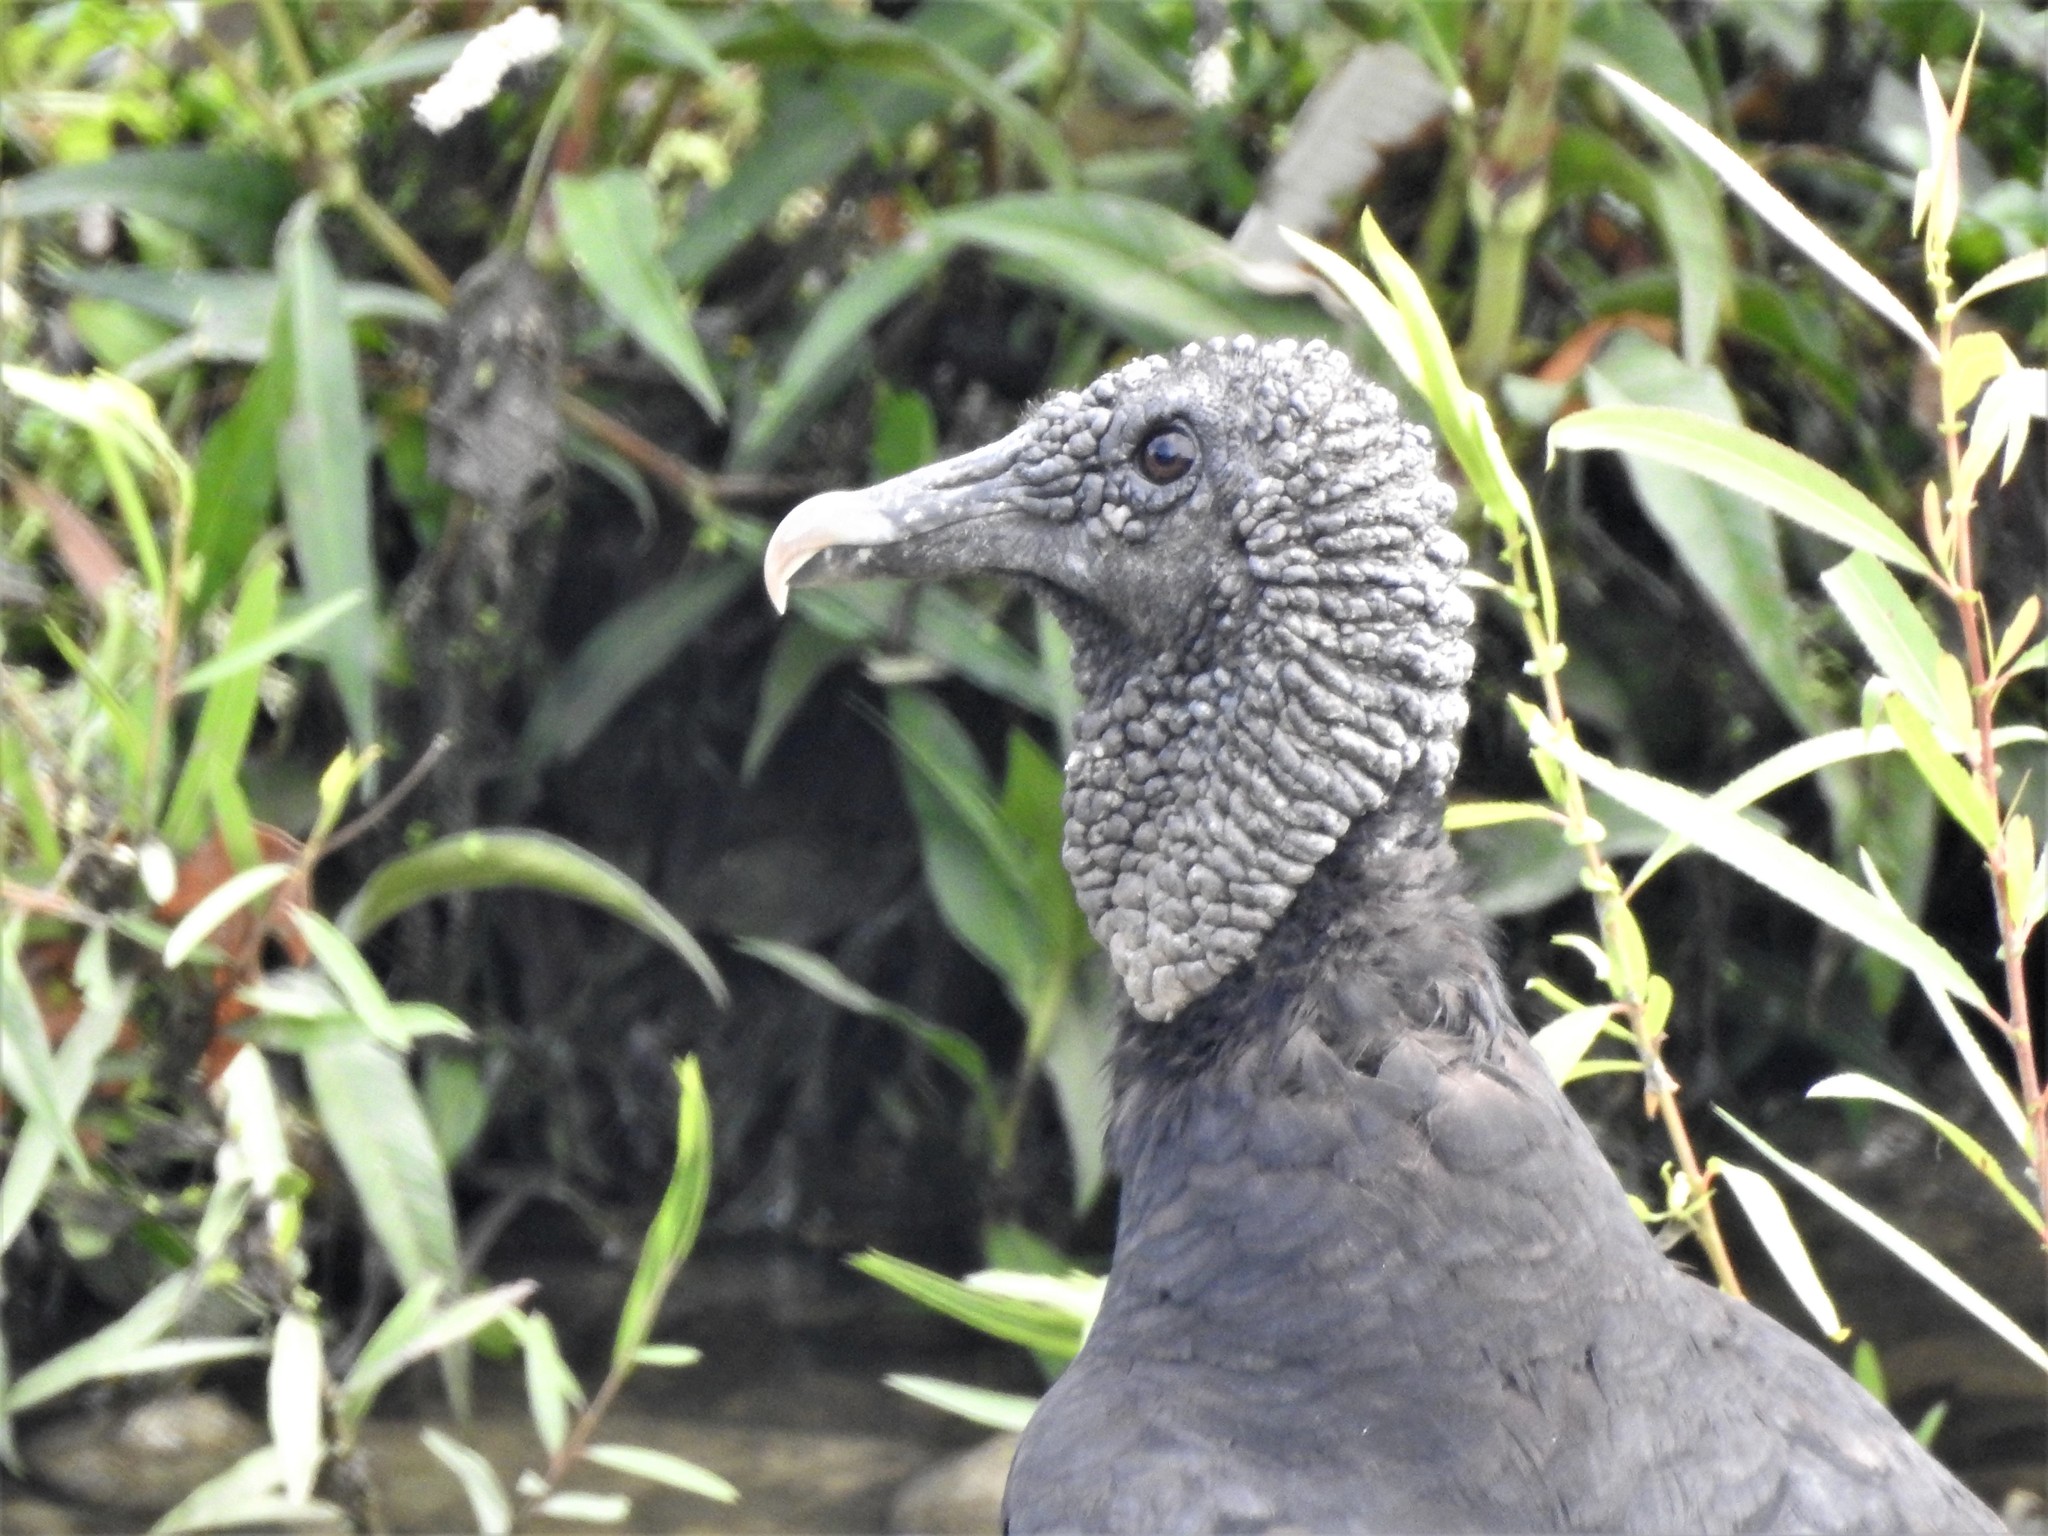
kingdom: Animalia
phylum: Chordata
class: Aves
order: Accipitriformes
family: Cathartidae
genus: Coragyps
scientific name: Coragyps atratus
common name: Black vulture
